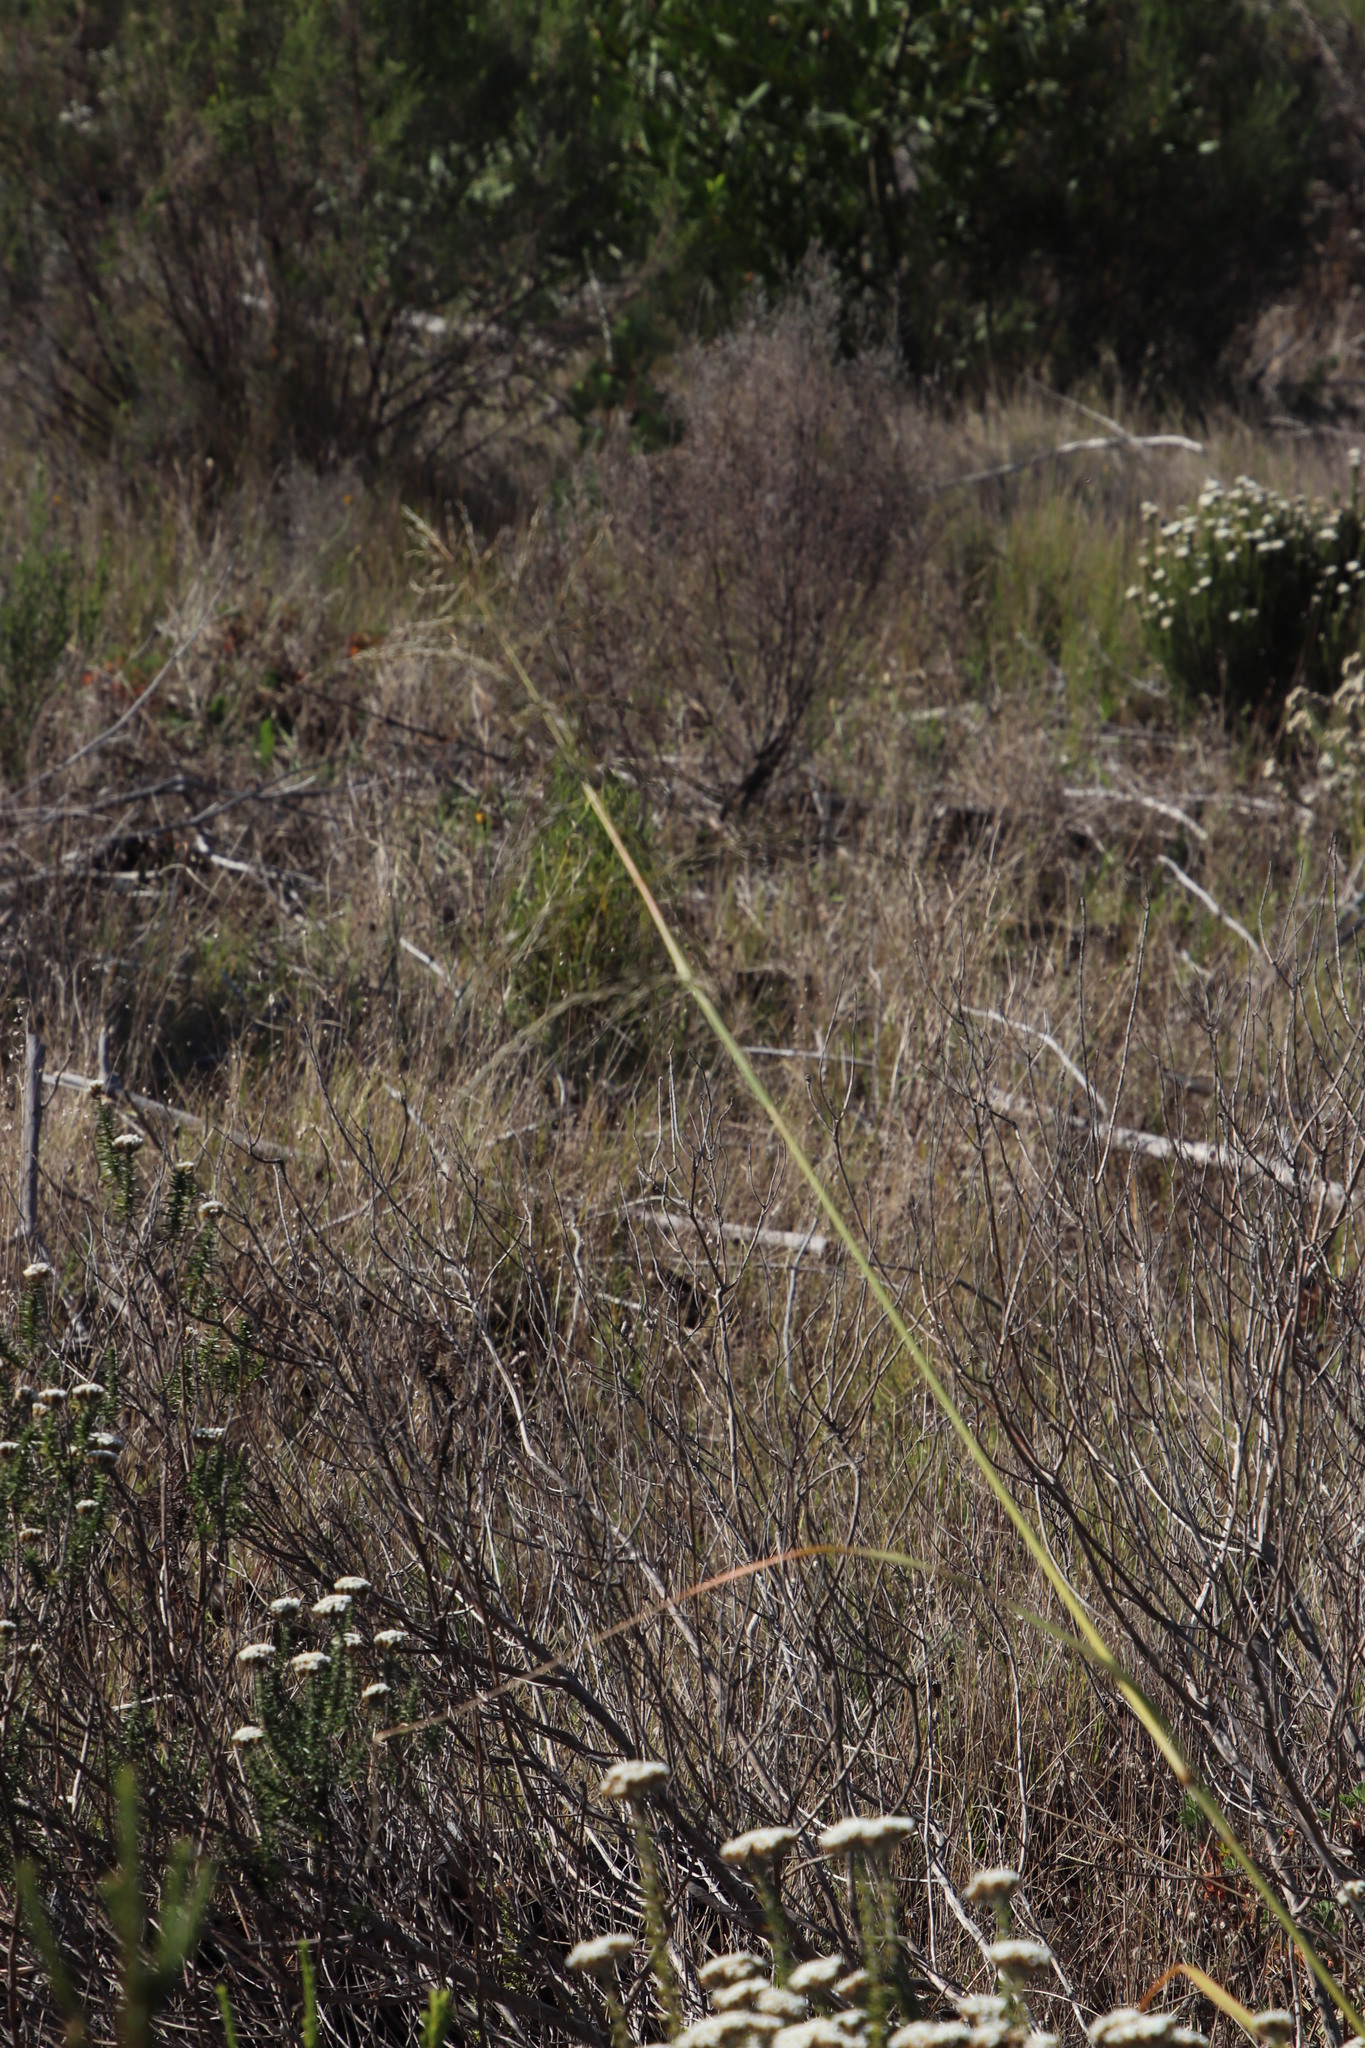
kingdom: Plantae
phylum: Tracheophyta
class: Liliopsida
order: Poales
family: Poaceae
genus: Eragrostis
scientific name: Eragrostis curvula
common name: African love-grass
